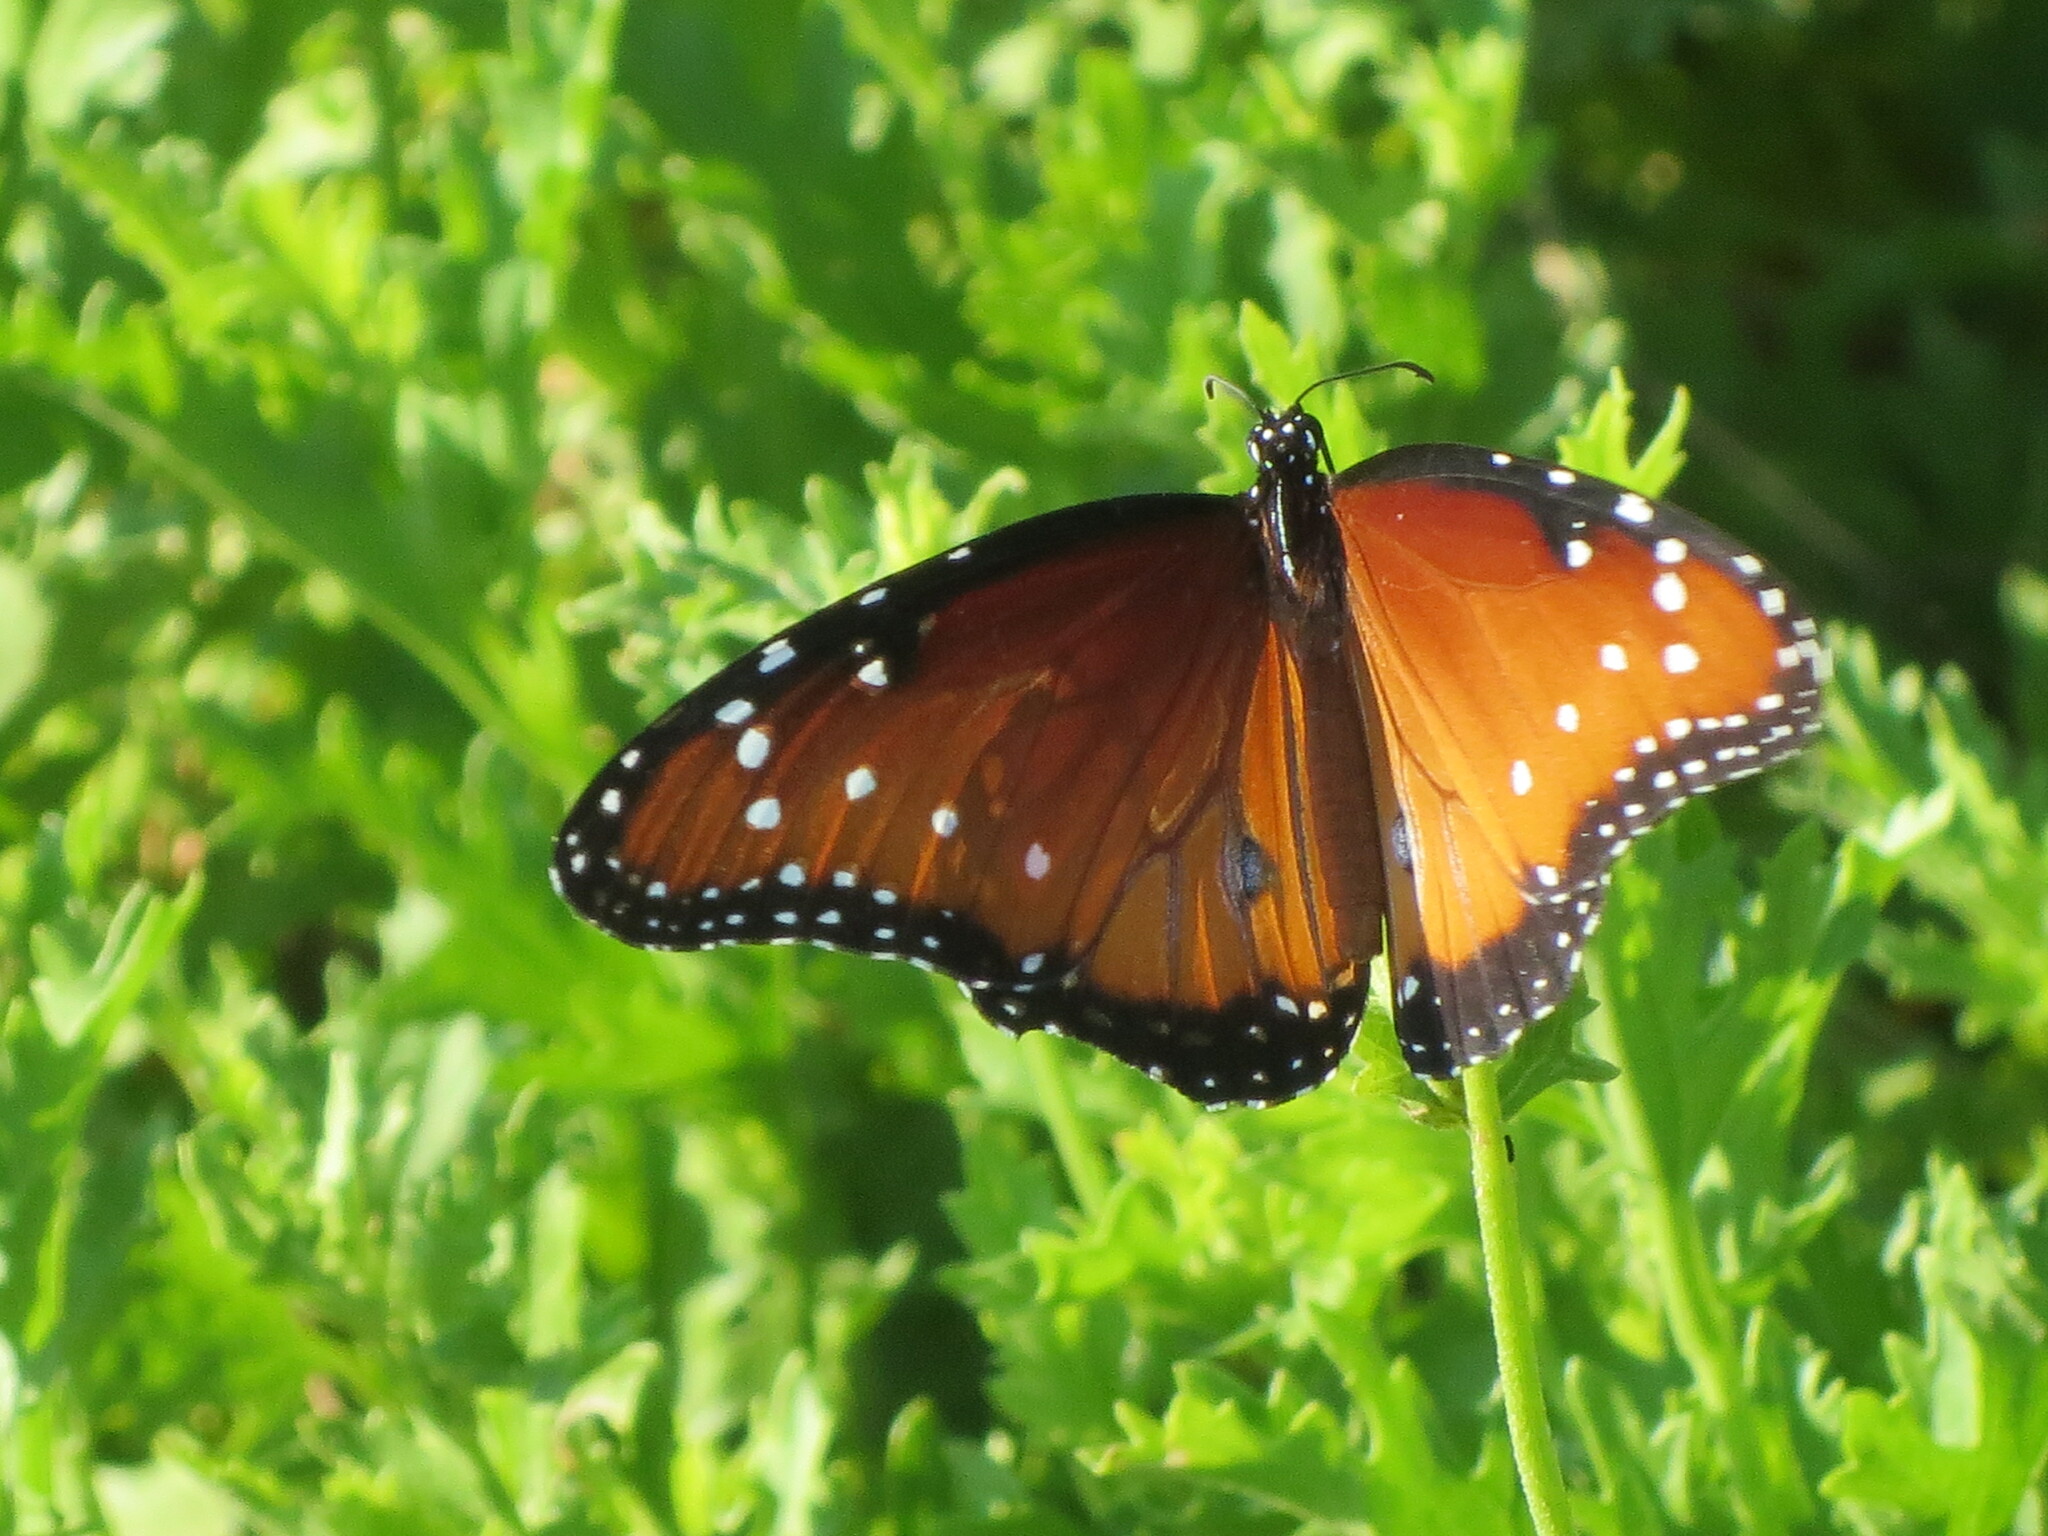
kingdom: Animalia
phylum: Arthropoda
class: Insecta
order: Lepidoptera
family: Nymphalidae
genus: Danaus
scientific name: Danaus gilippus
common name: Queen
